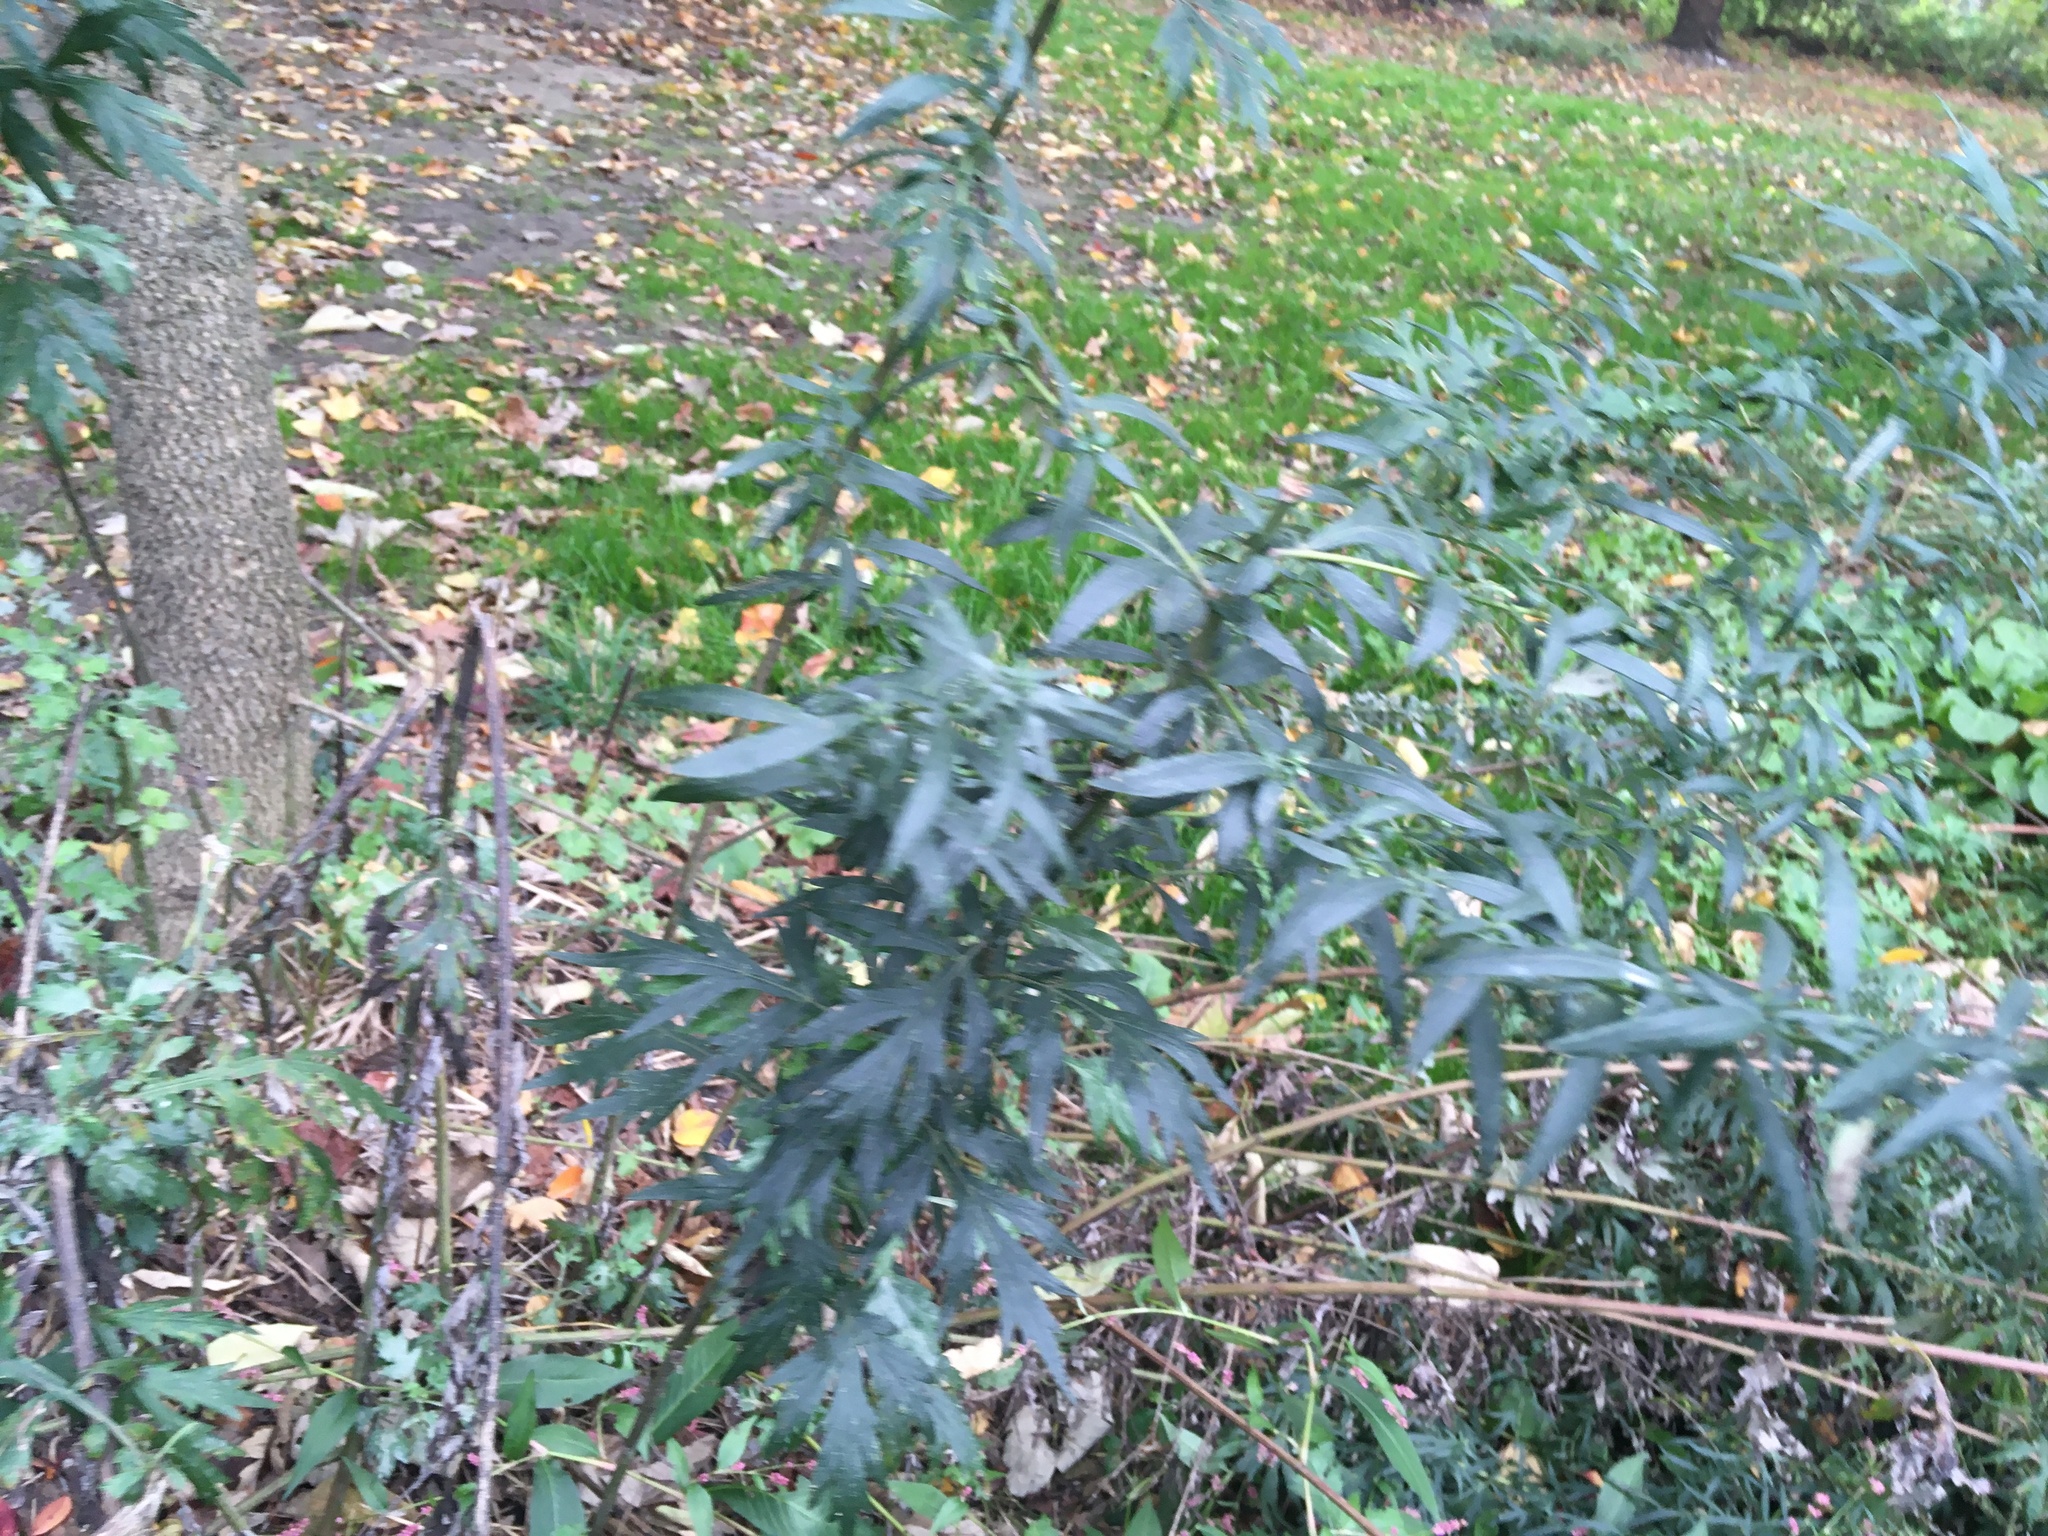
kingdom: Plantae
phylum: Tracheophyta
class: Magnoliopsida
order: Asterales
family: Asteraceae
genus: Artemisia
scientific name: Artemisia vulgaris
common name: Mugwort
